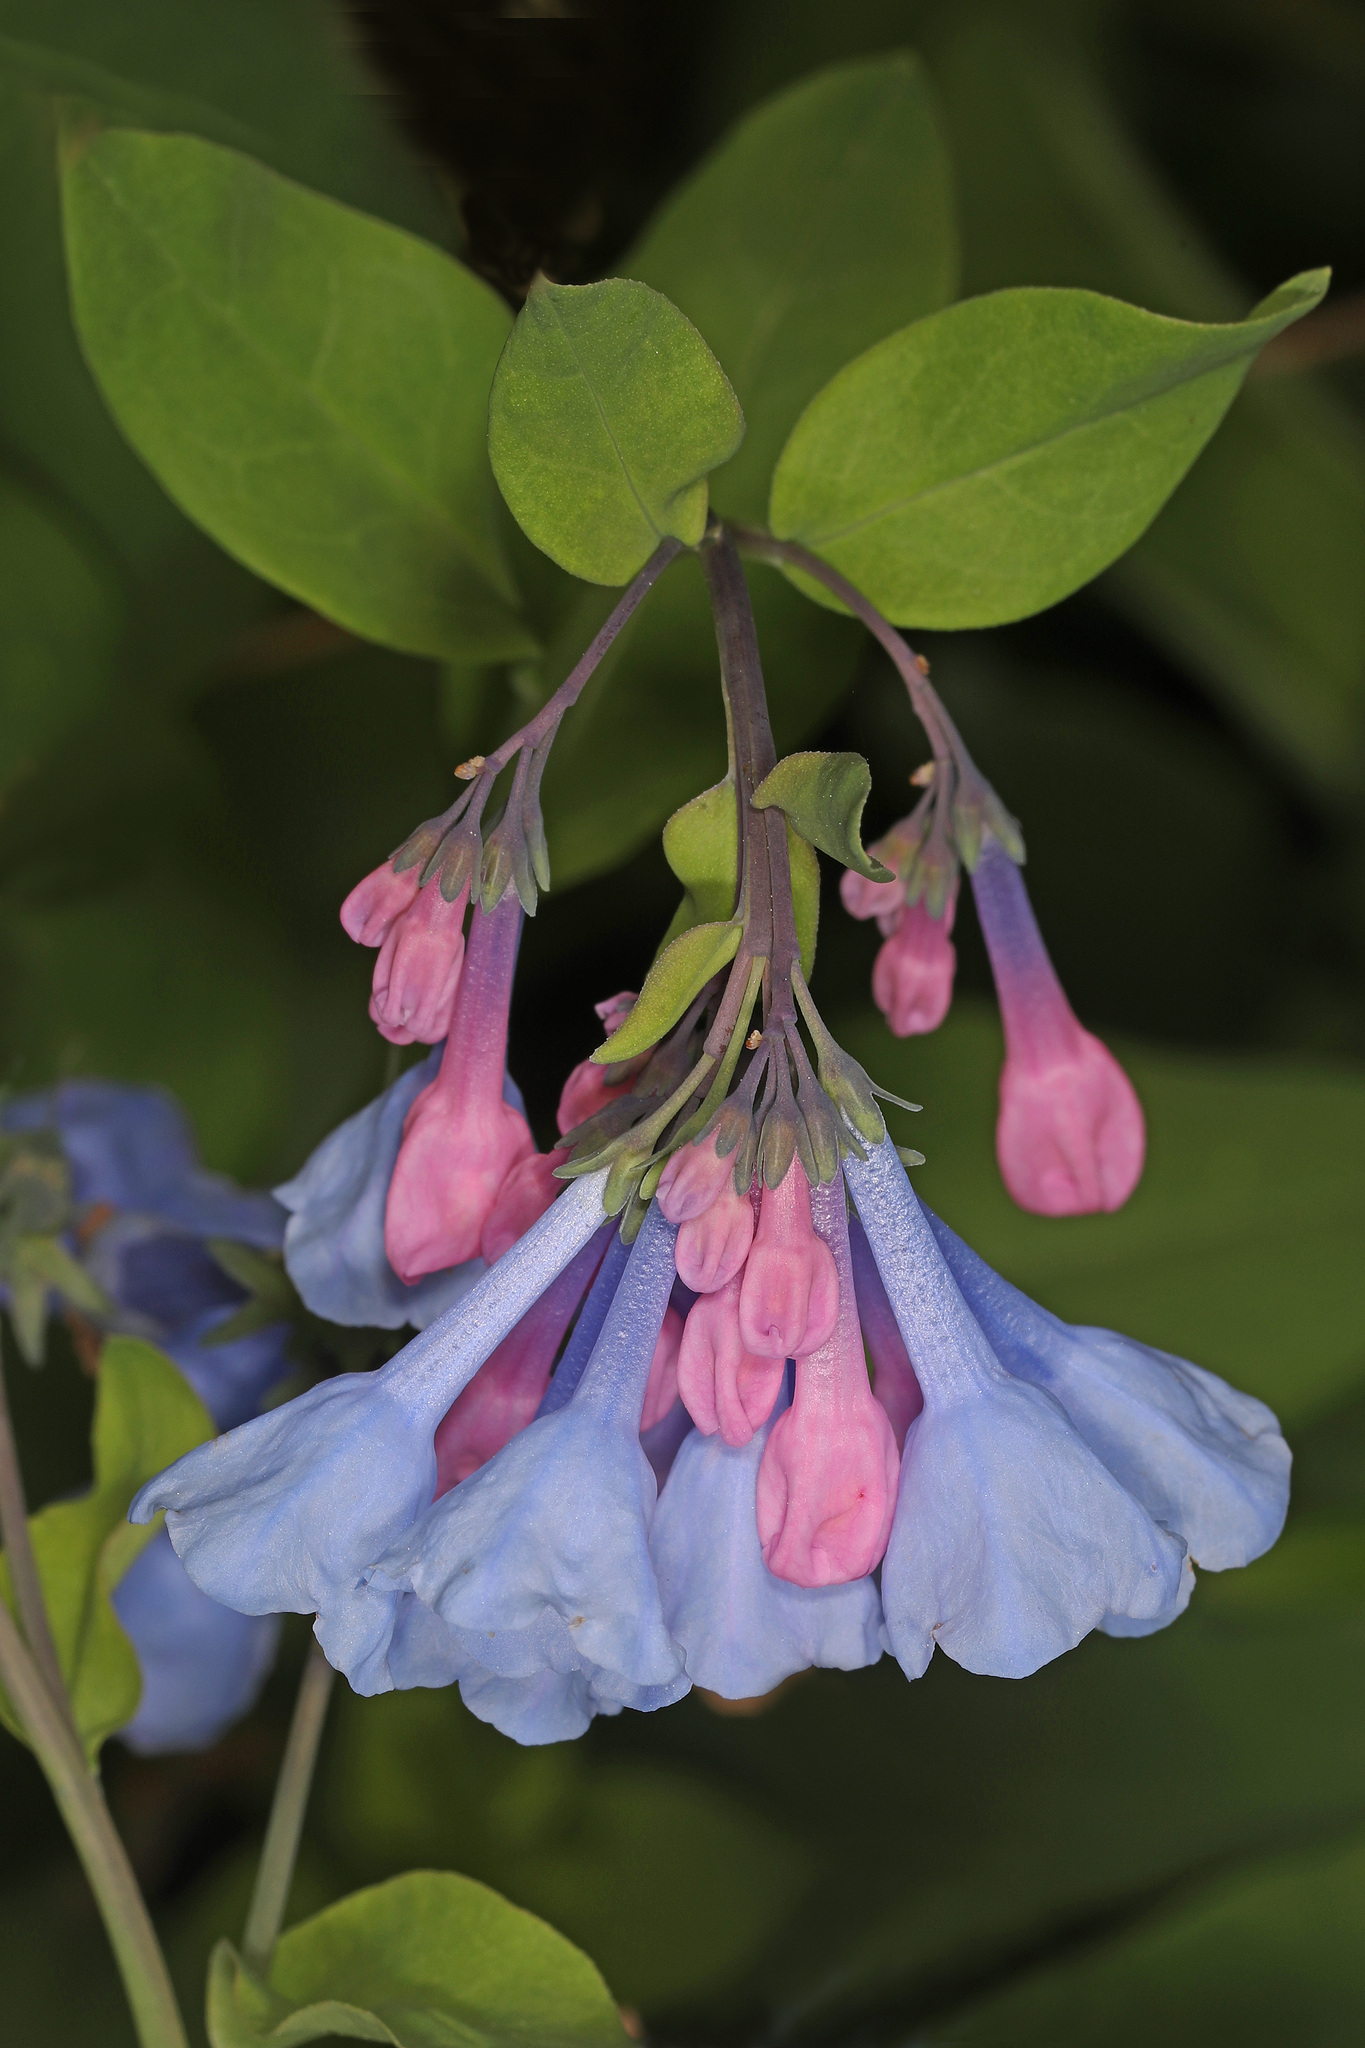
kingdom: Plantae
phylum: Tracheophyta
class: Magnoliopsida
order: Boraginales
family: Boraginaceae
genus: Mertensia
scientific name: Mertensia virginica
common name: Virginia bluebells
